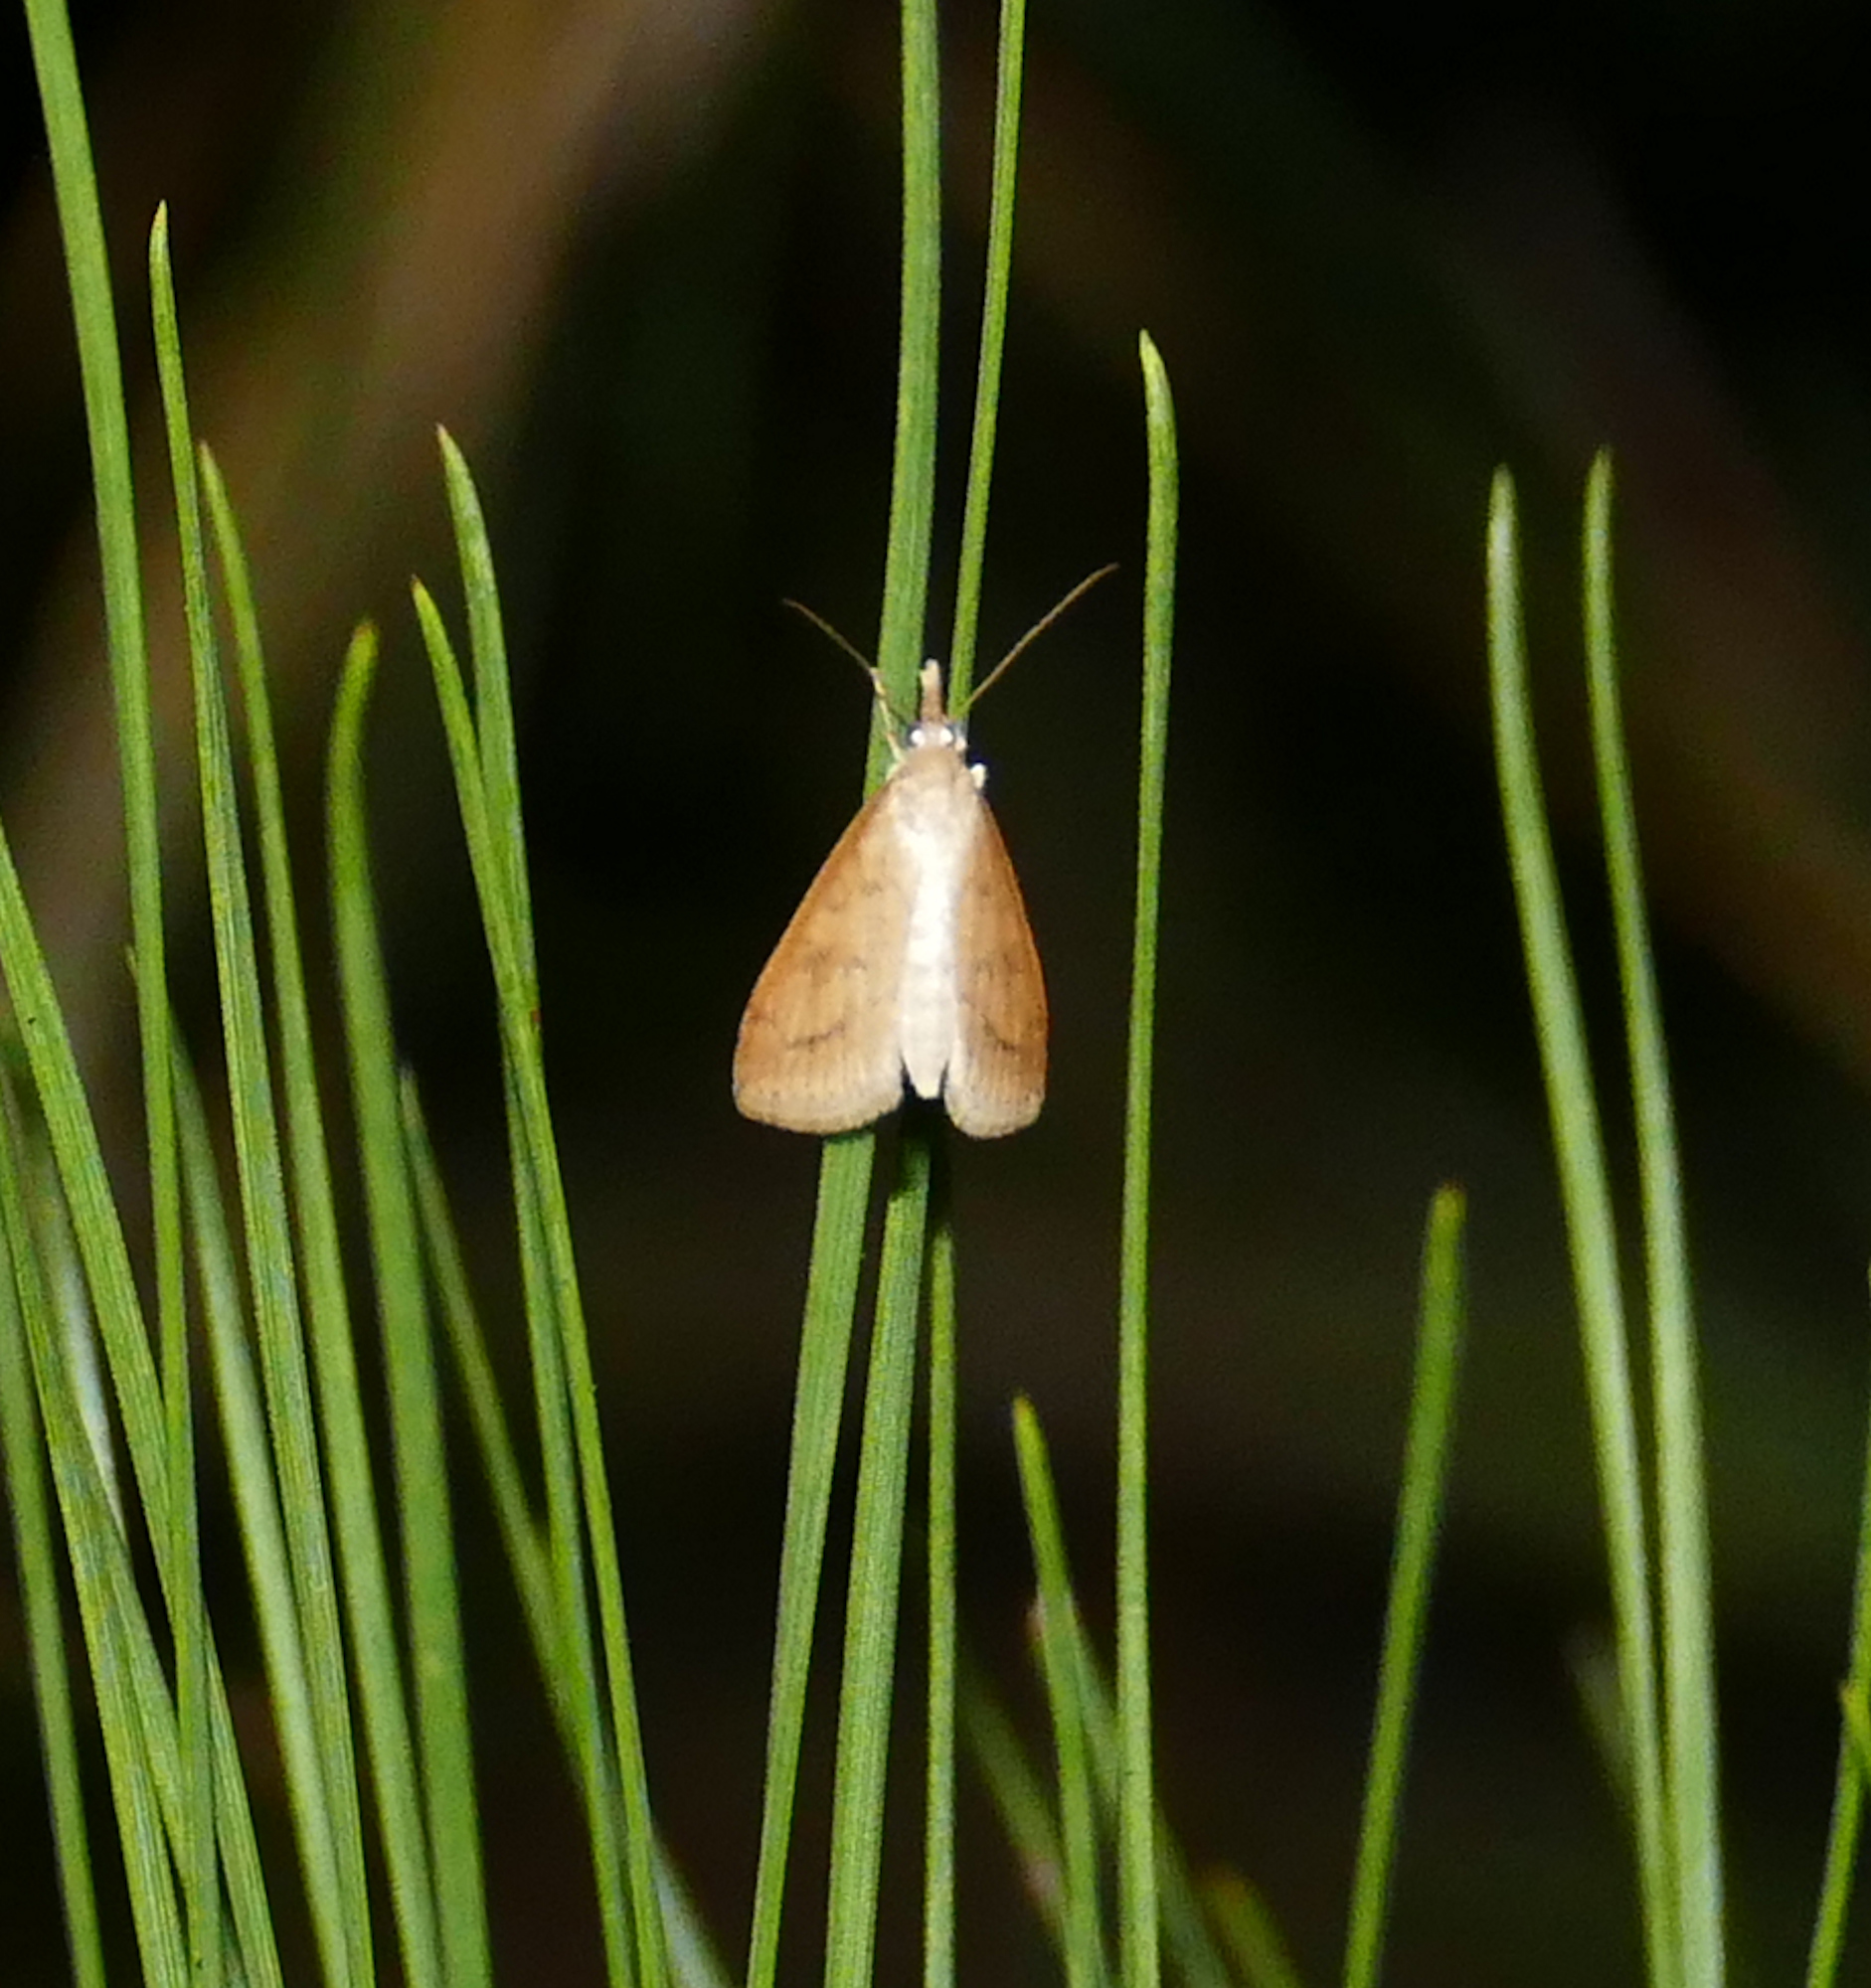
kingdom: Animalia
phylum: Arthropoda
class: Insecta
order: Lepidoptera
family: Crambidae
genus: Udea
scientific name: Udea rubigalis
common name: Celery leaftier moth
